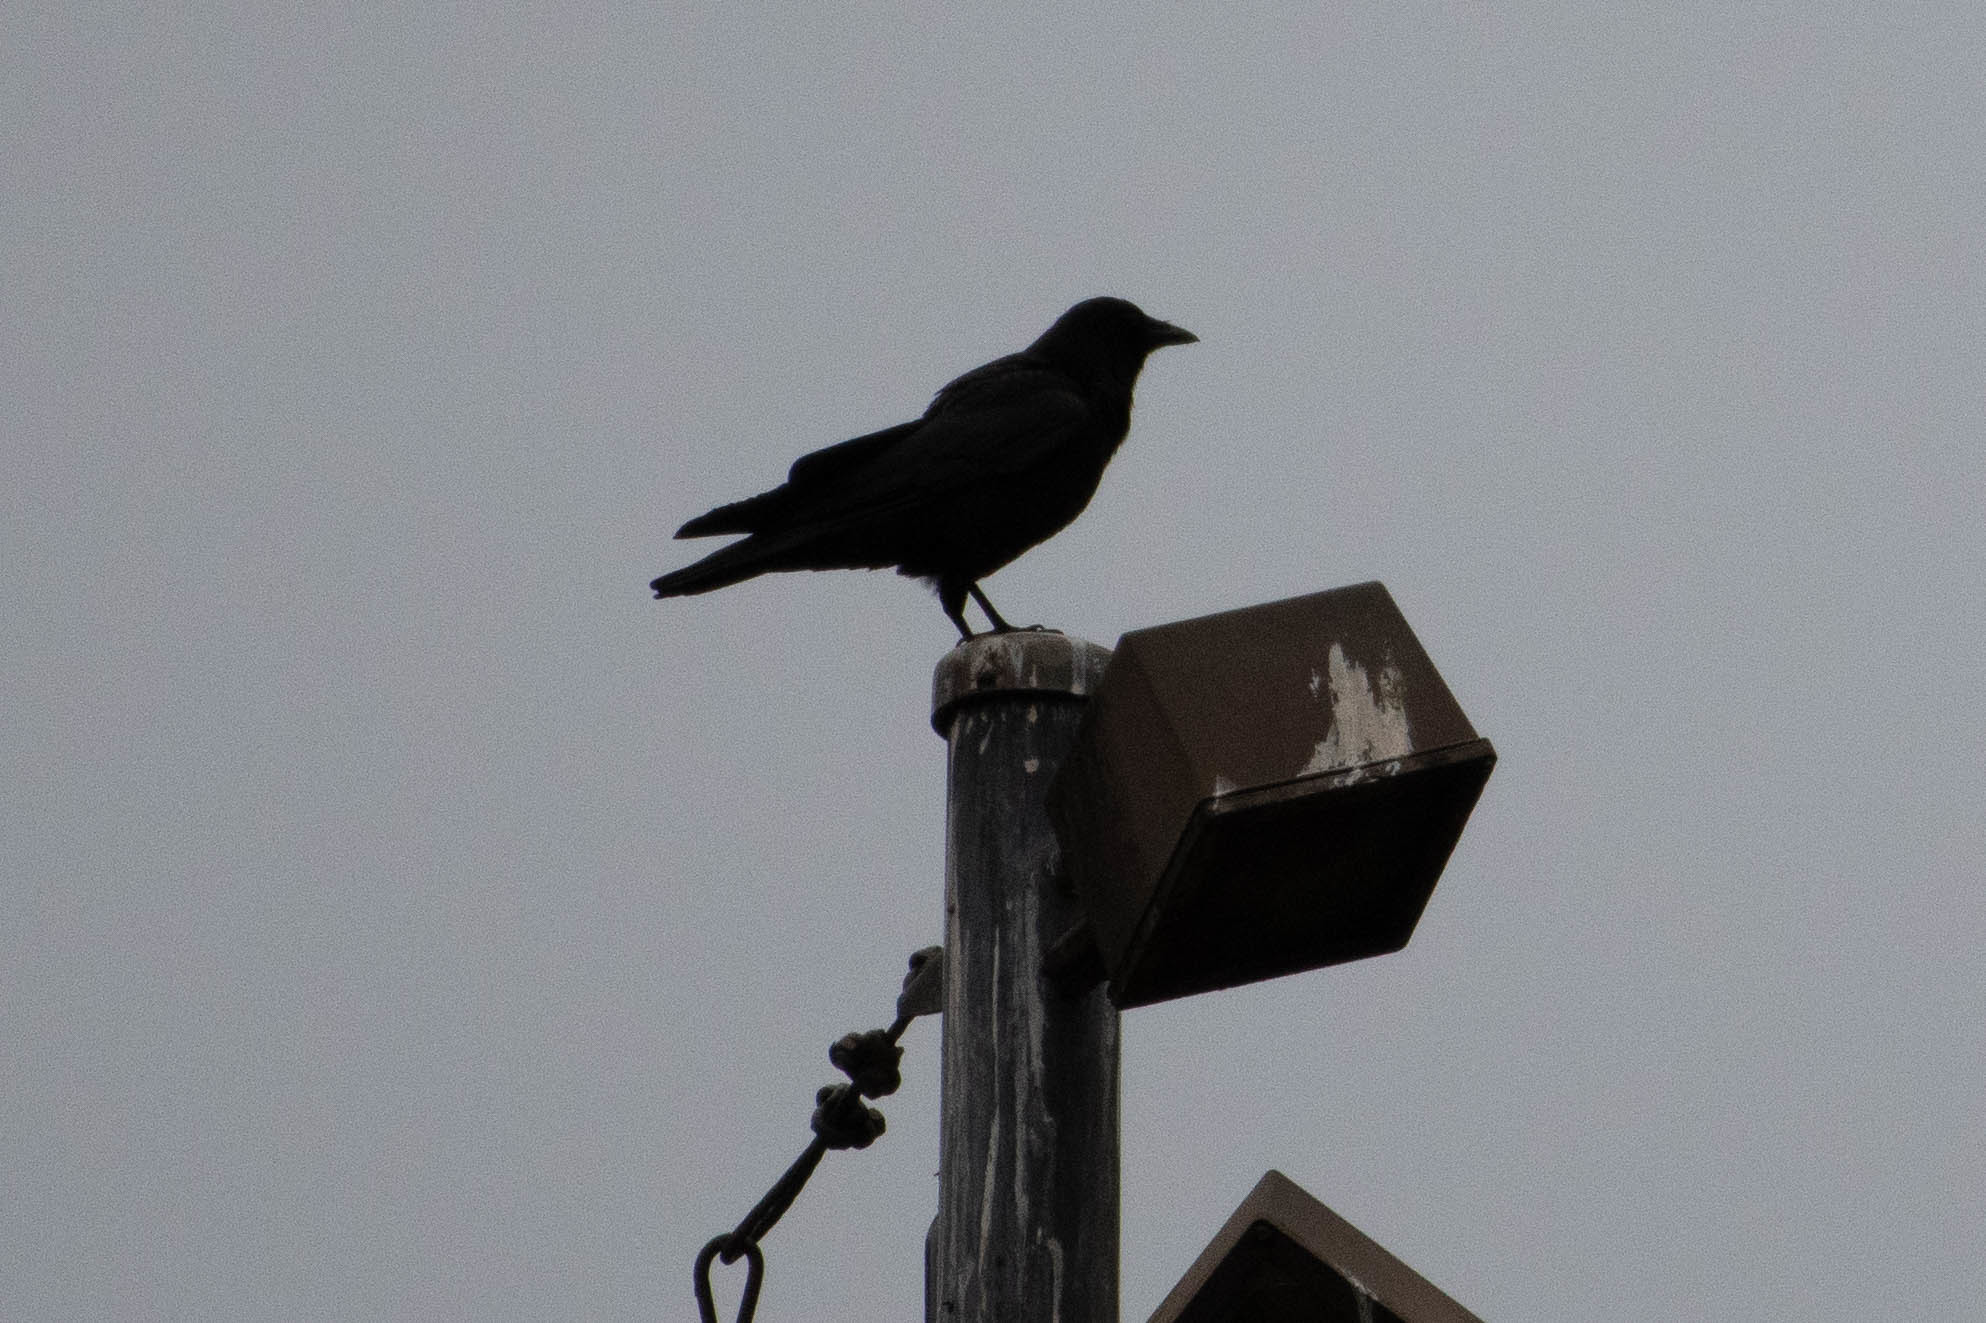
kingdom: Animalia
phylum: Chordata
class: Aves
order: Passeriformes
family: Corvidae
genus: Corvus
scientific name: Corvus brachyrhynchos
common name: American crow
